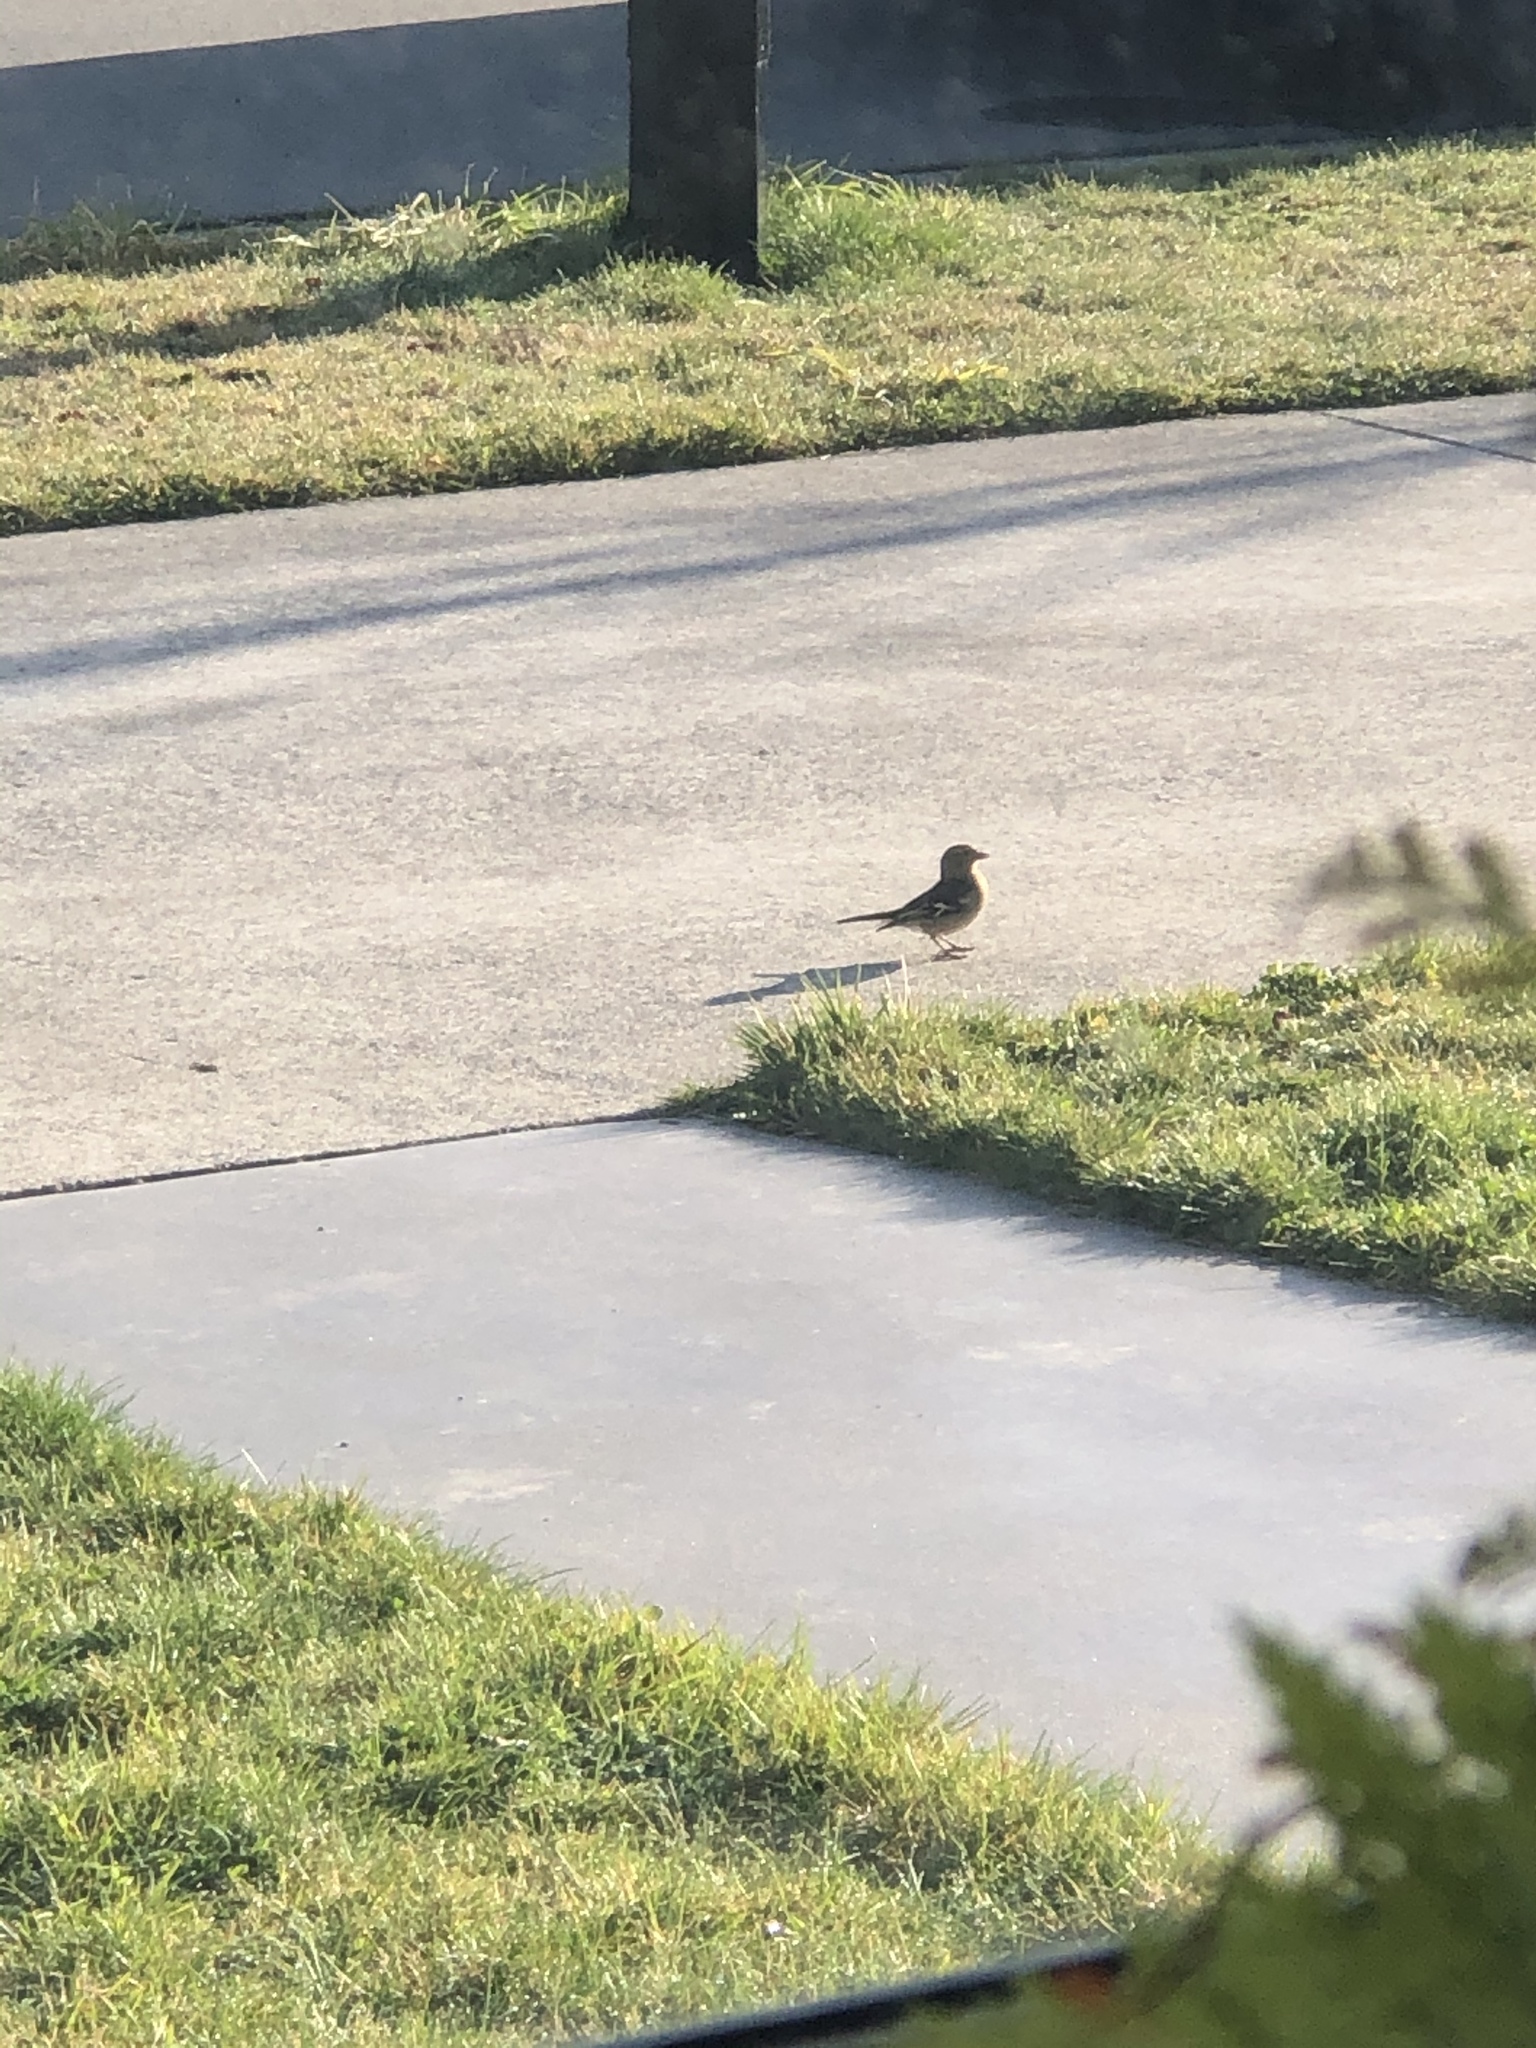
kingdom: Animalia
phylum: Chordata
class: Aves
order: Passeriformes
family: Fringillidae
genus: Fringilla
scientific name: Fringilla coelebs
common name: Common chaffinch
